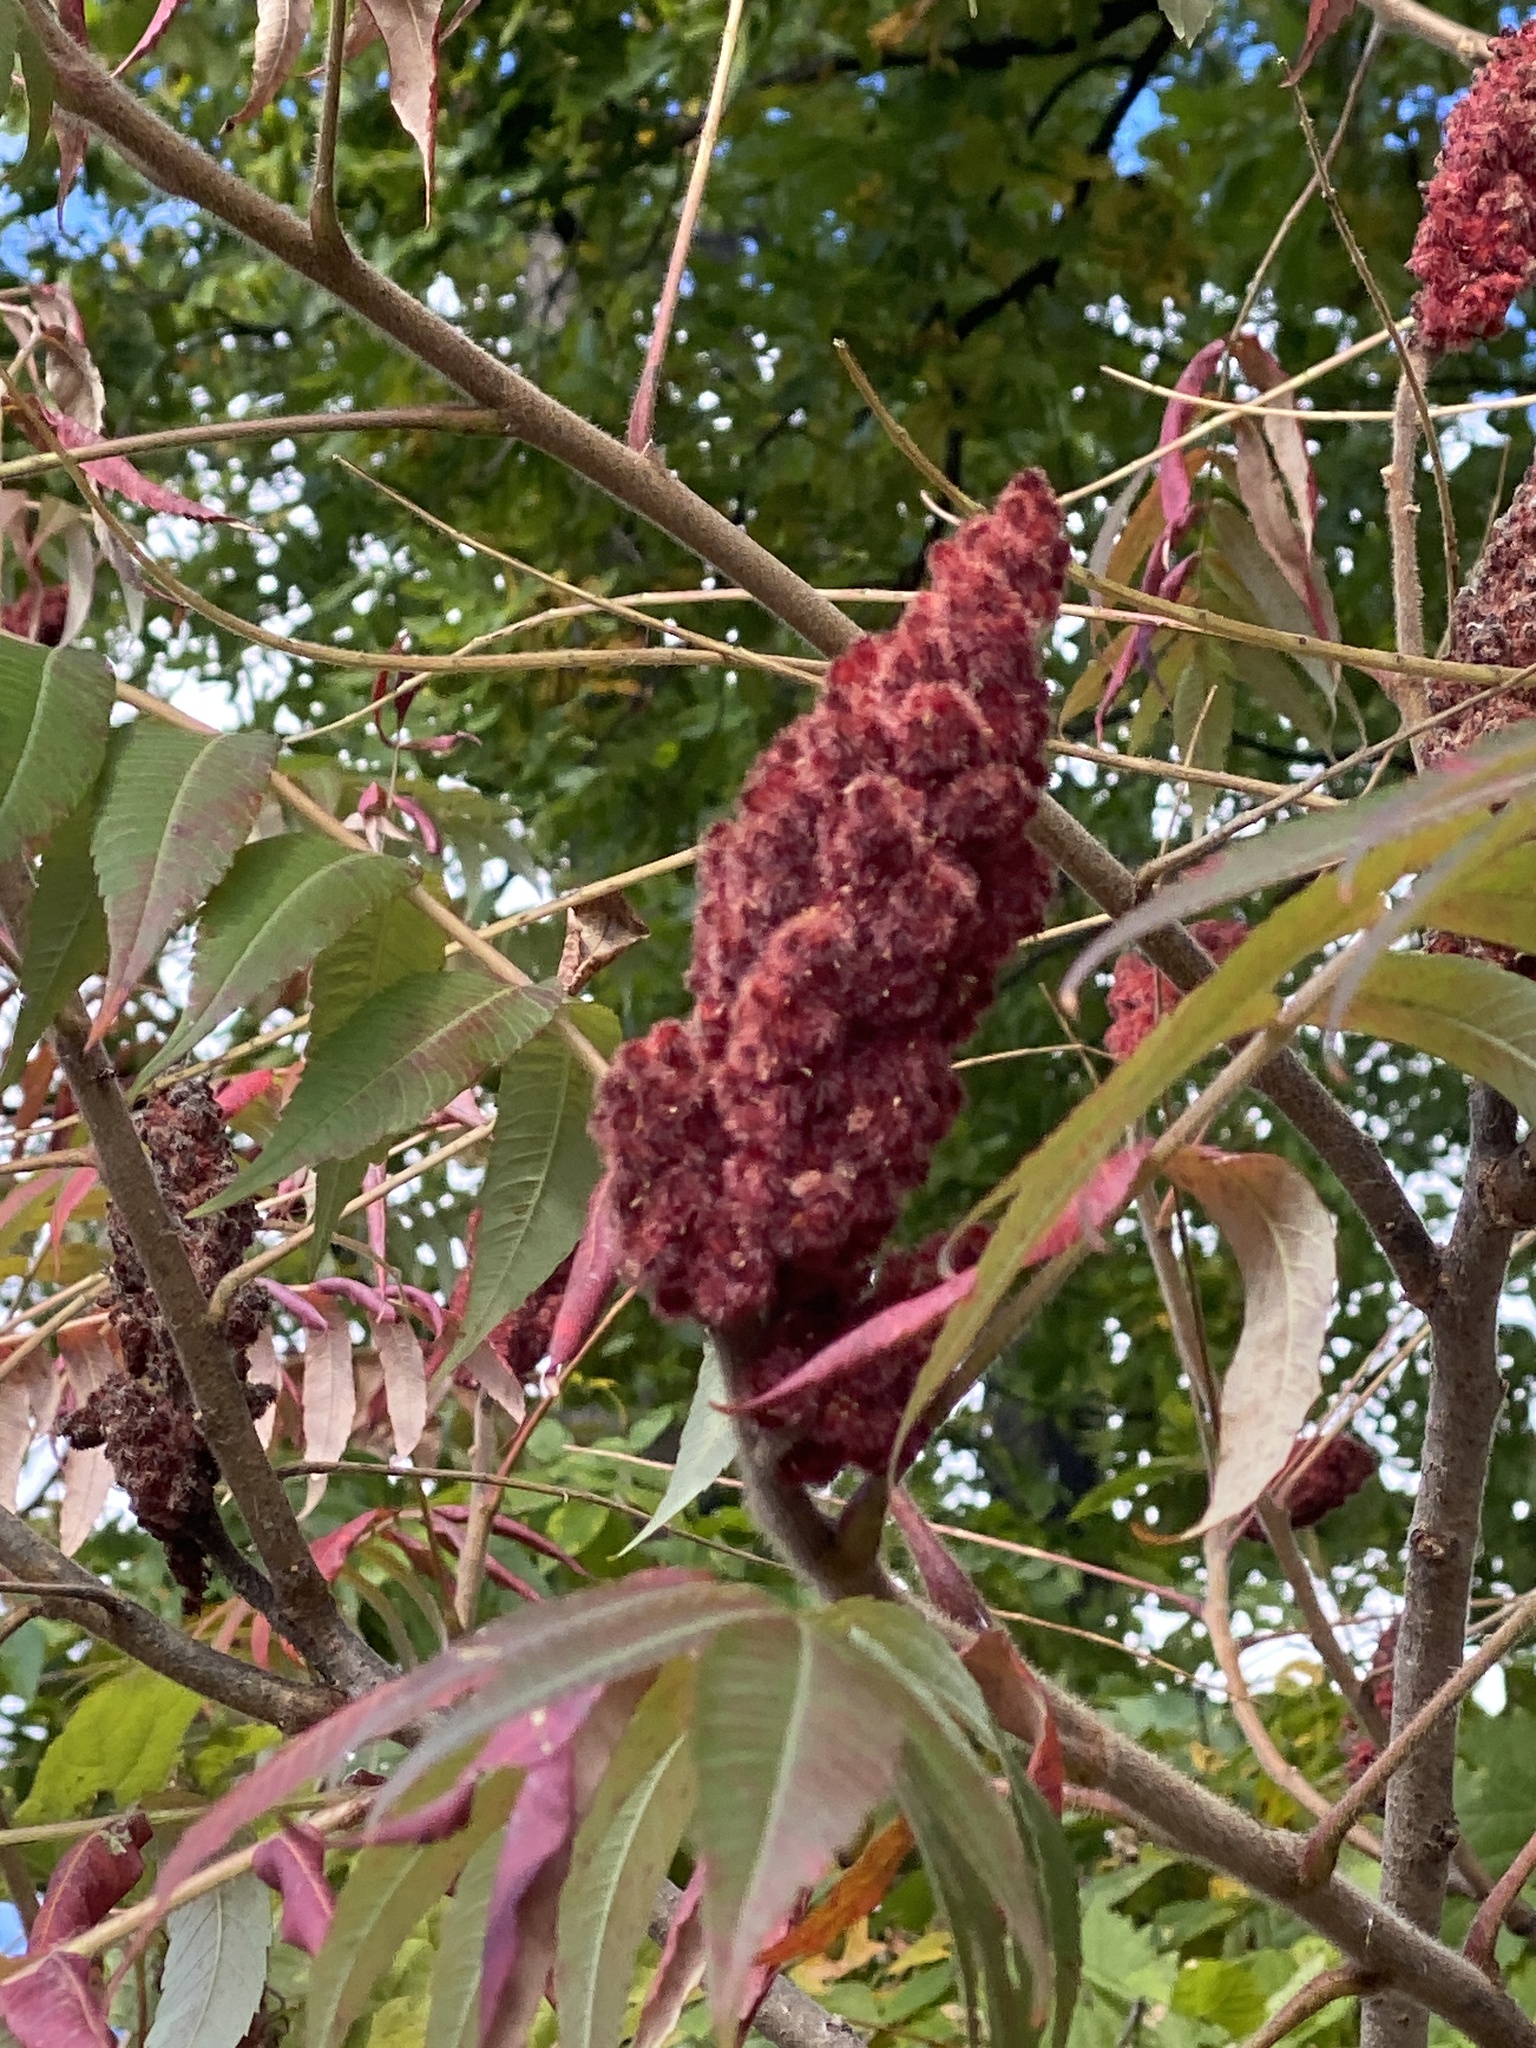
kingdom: Plantae
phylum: Tracheophyta
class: Magnoliopsida
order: Sapindales
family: Anacardiaceae
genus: Rhus
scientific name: Rhus typhina
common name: Staghorn sumac
